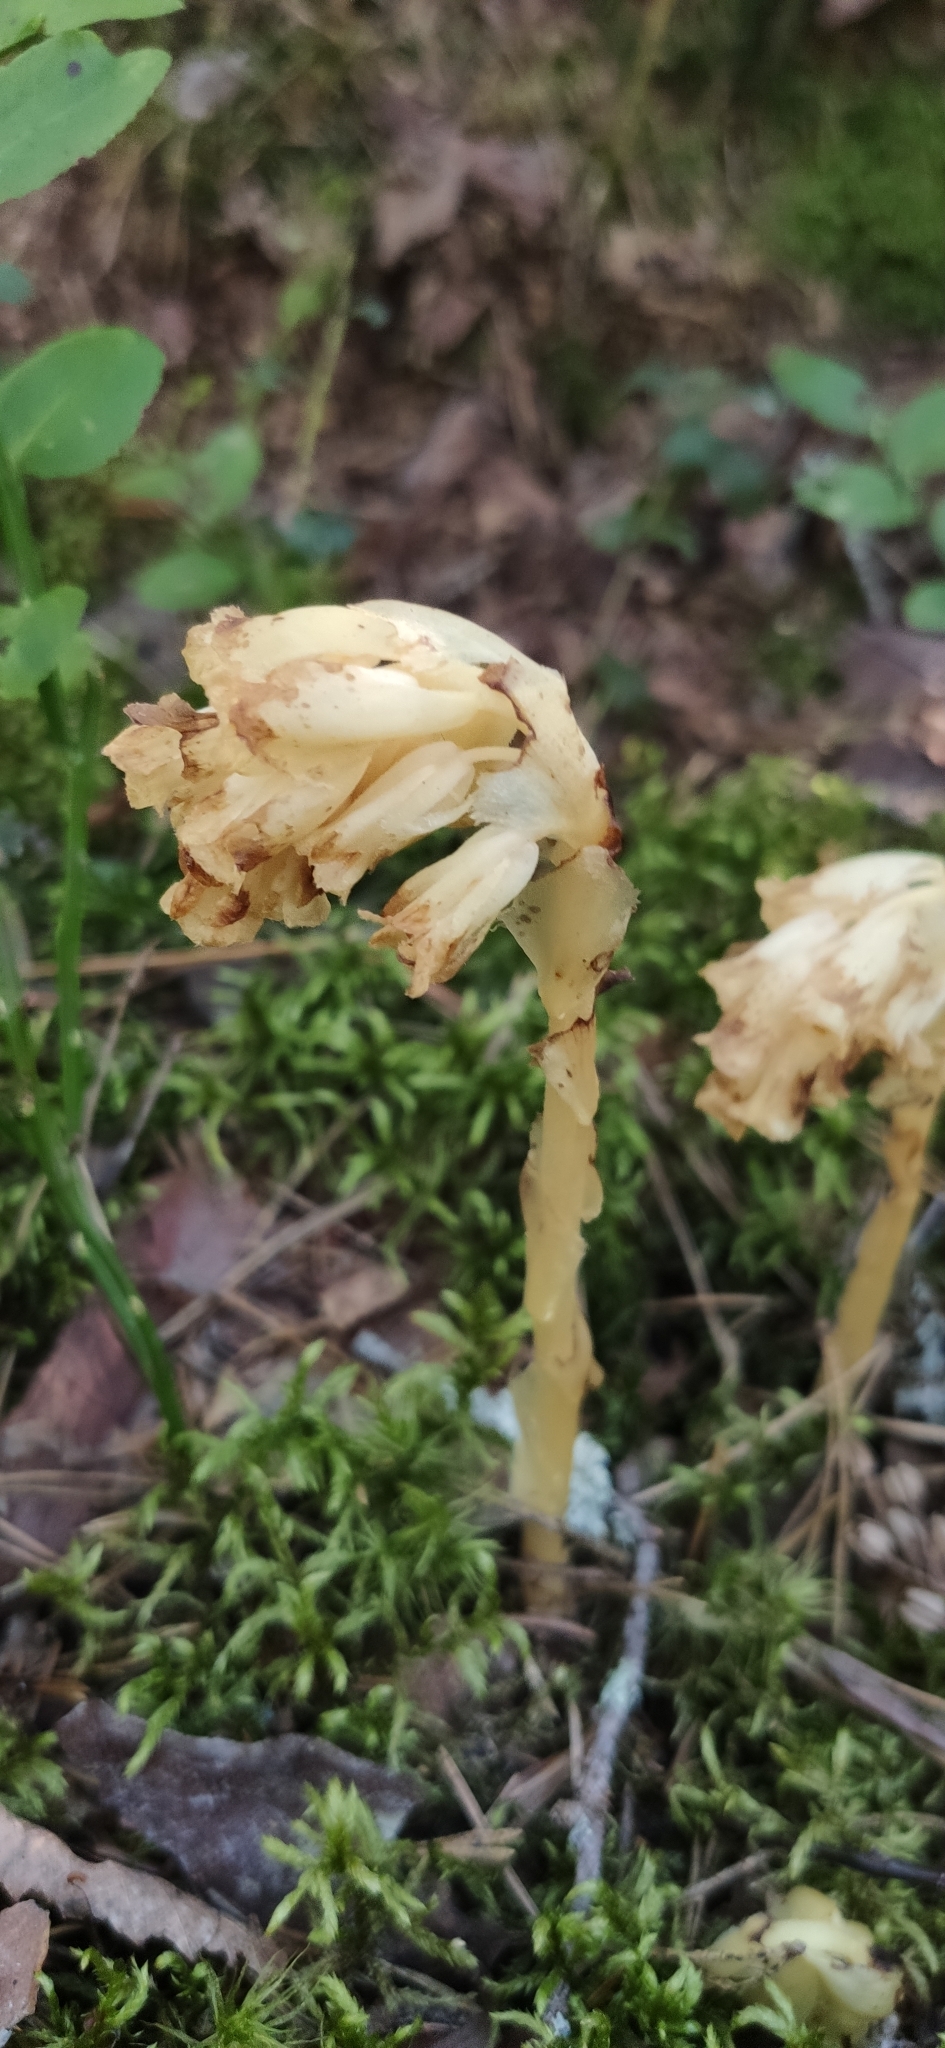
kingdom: Plantae
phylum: Tracheophyta
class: Magnoliopsida
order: Ericales
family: Ericaceae
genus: Hypopitys
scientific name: Hypopitys monotropa
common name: Yellow bird's-nest
